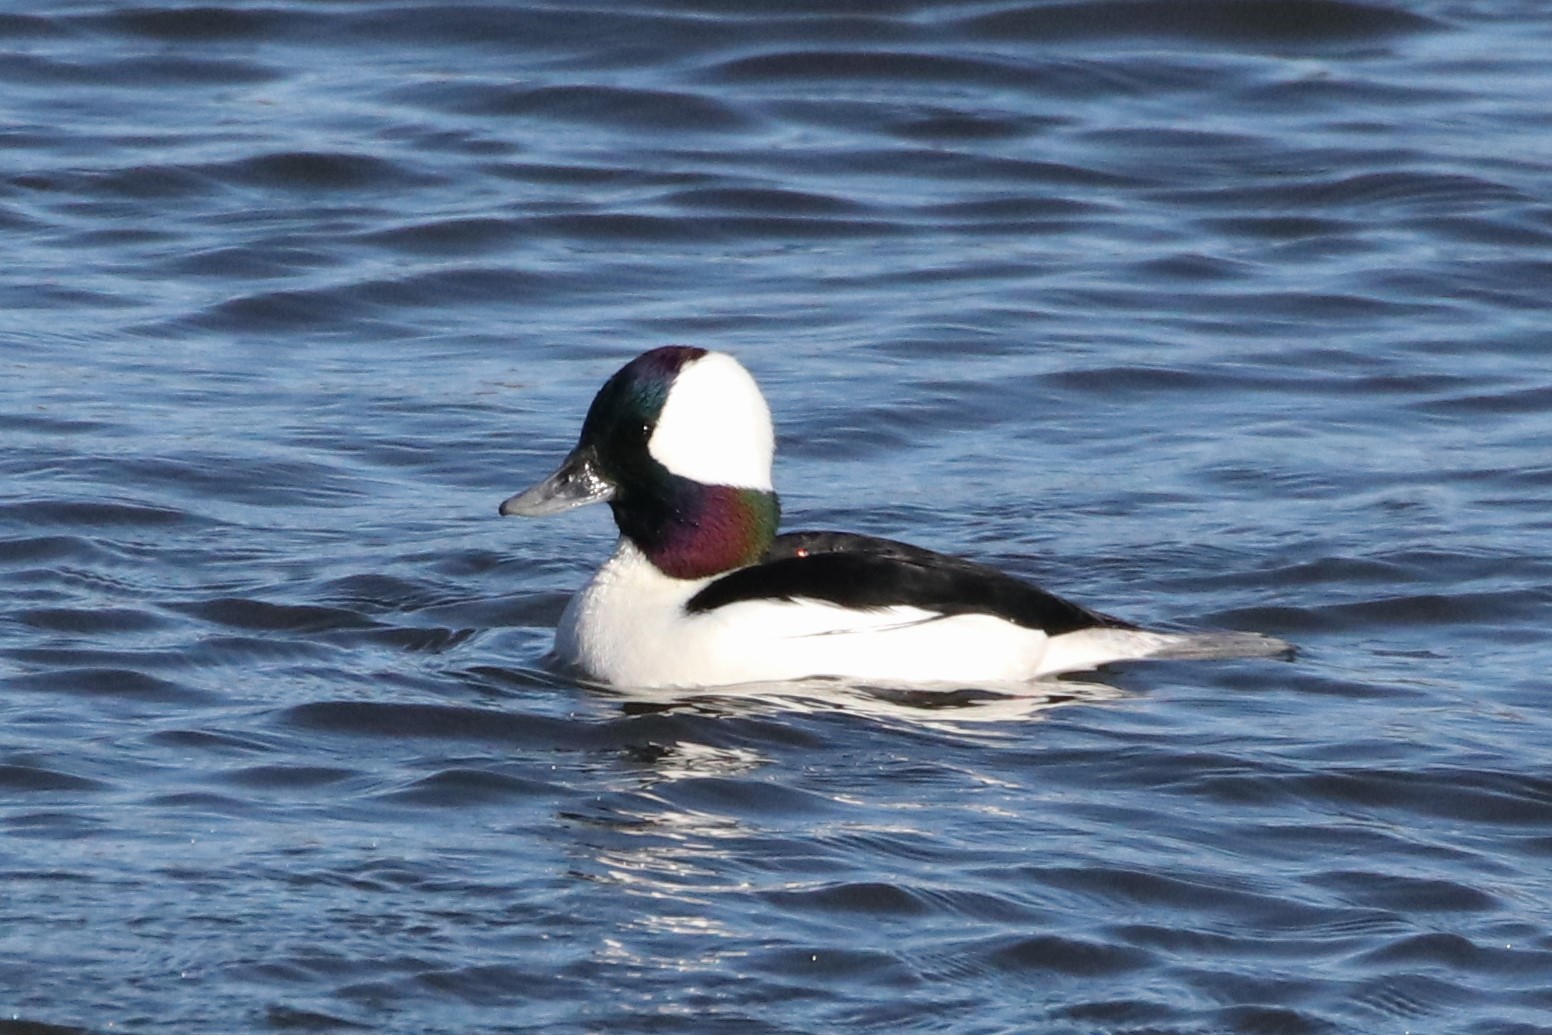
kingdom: Animalia
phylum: Chordata
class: Aves
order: Anseriformes
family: Anatidae
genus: Bucephala
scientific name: Bucephala albeola
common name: Bufflehead
